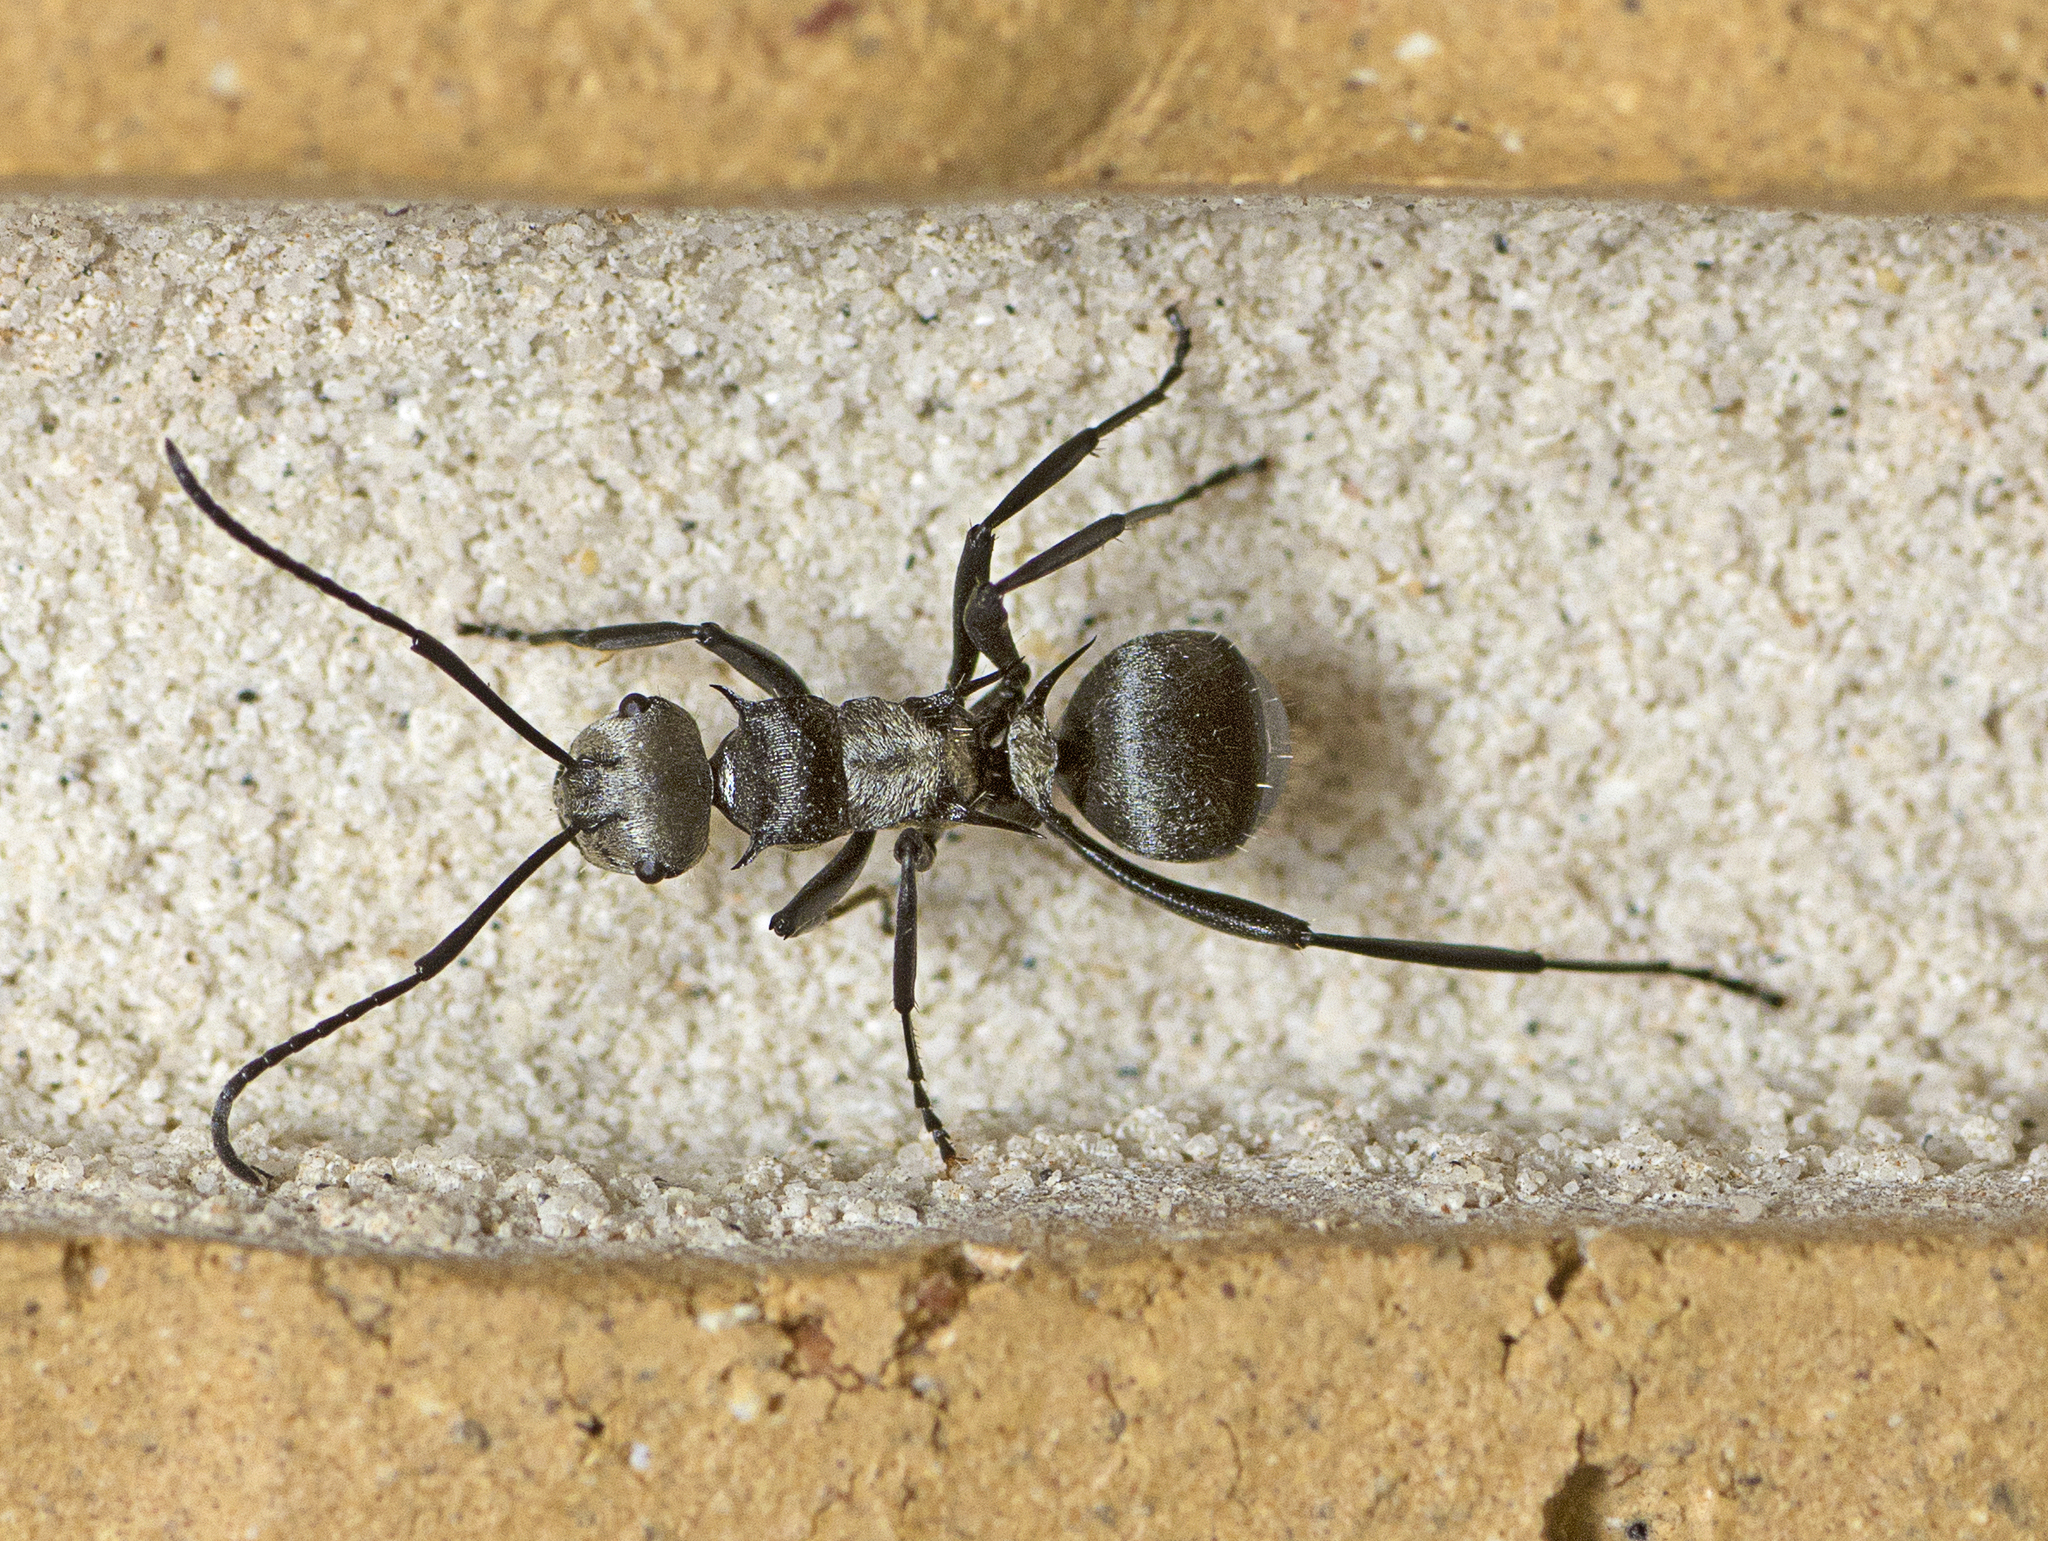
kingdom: Animalia
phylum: Arthropoda
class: Insecta
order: Hymenoptera
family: Formicidae
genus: Polyrhachis
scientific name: Polyrhachis daemeli
